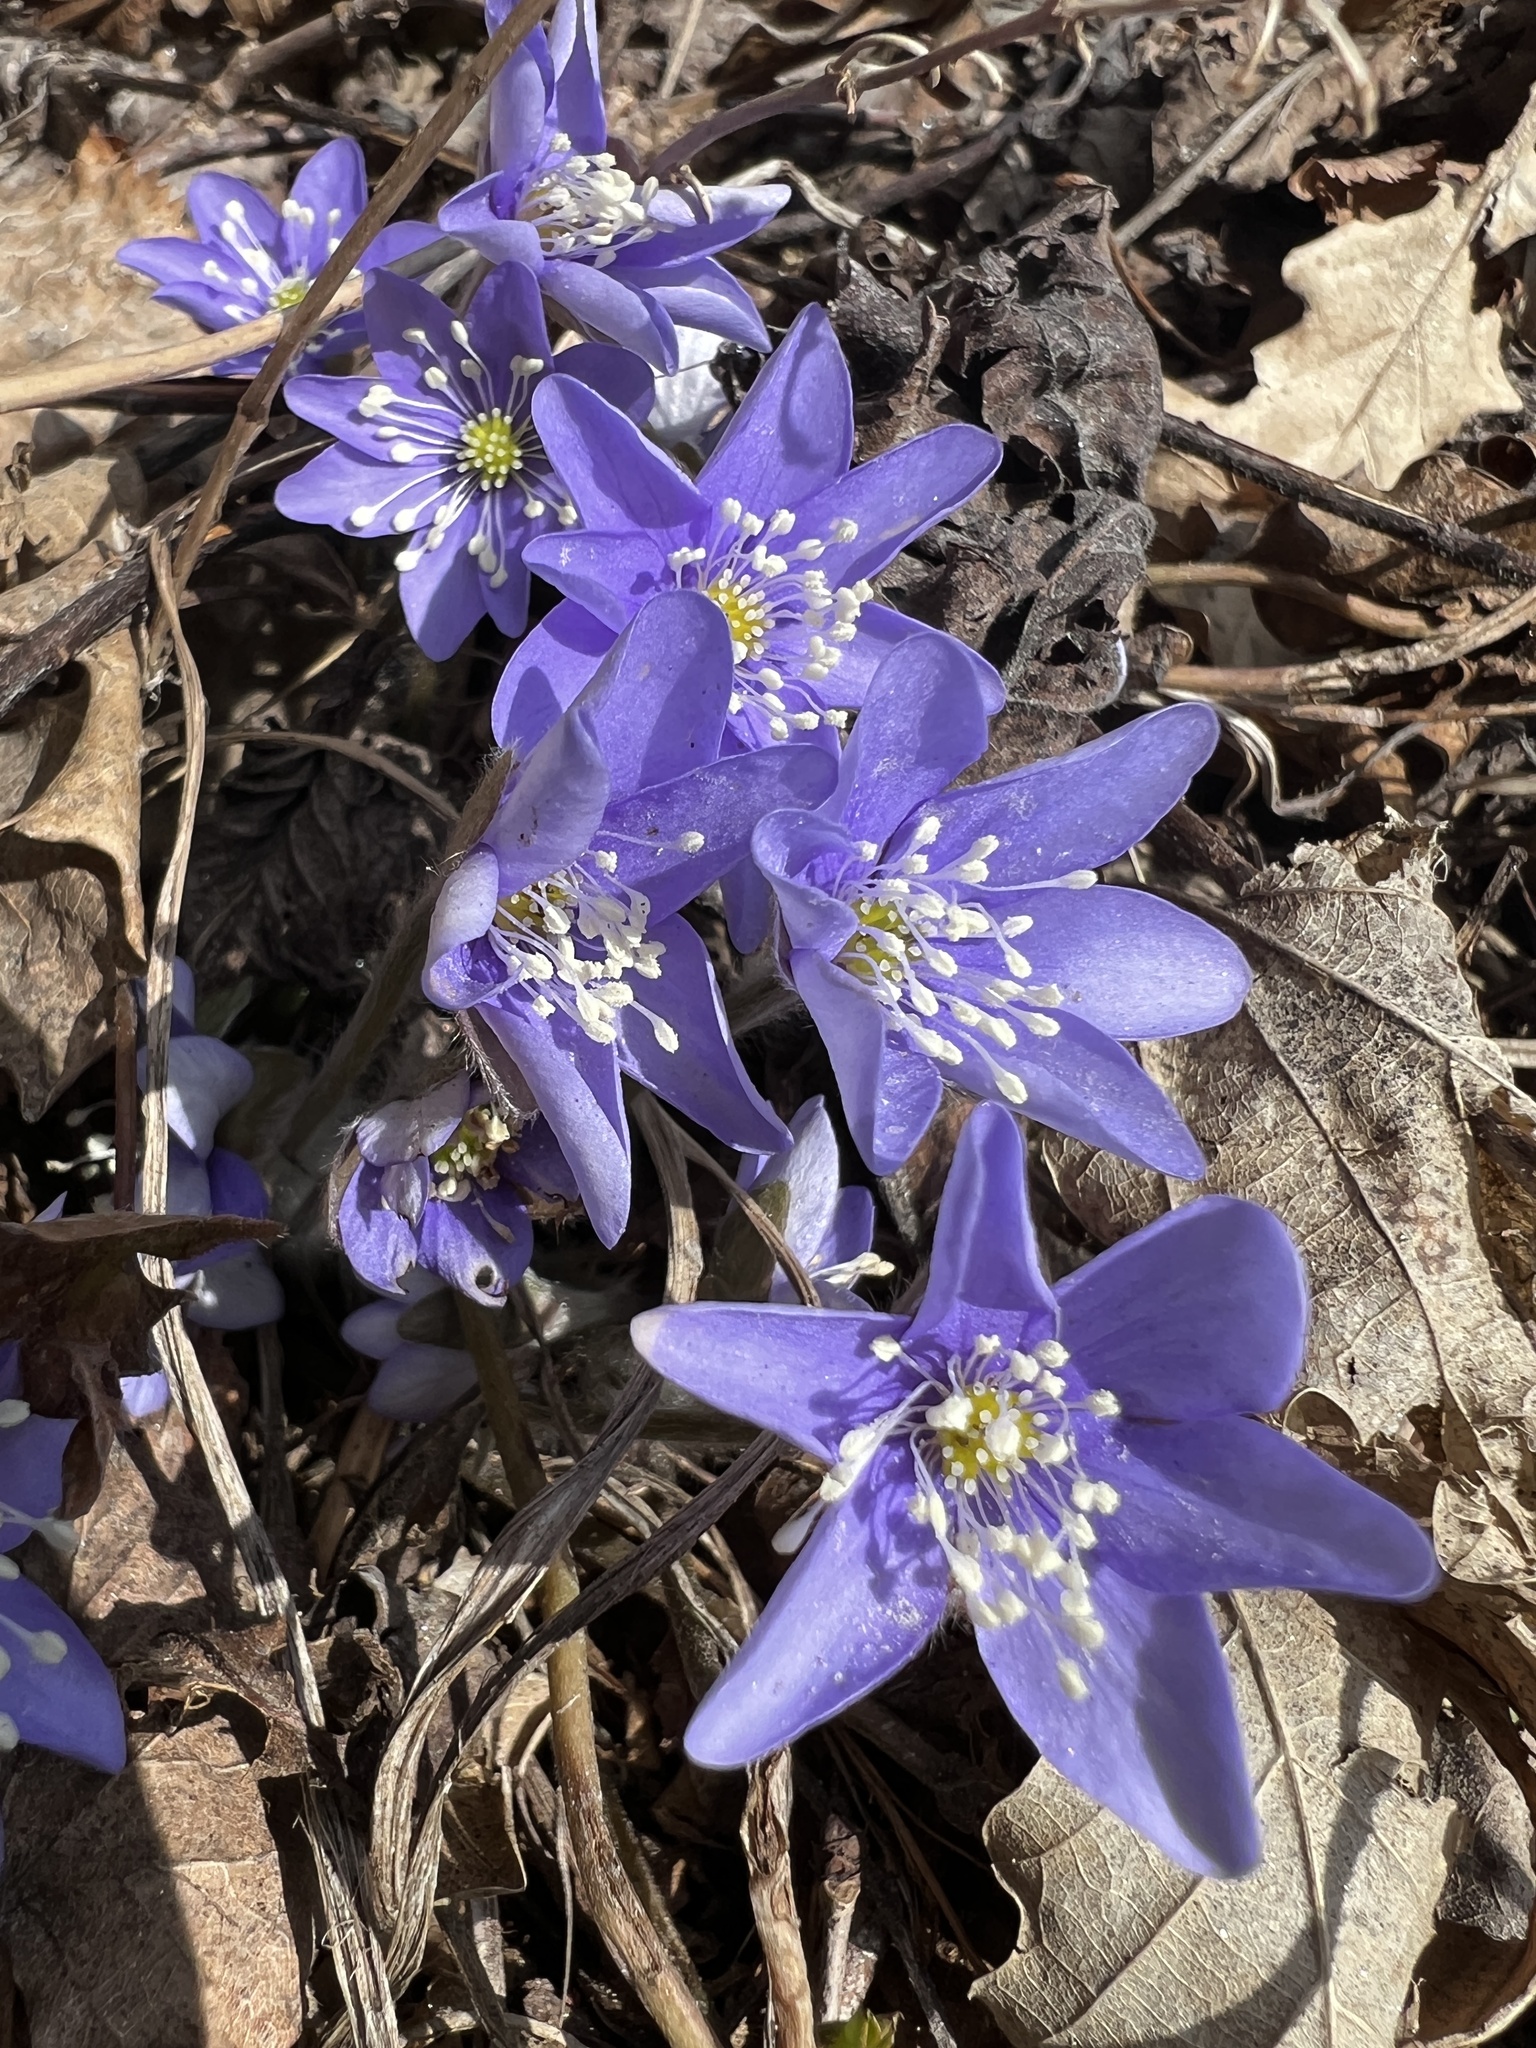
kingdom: Plantae
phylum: Tracheophyta
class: Magnoliopsida
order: Ranunculales
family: Ranunculaceae
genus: Hepatica
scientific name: Hepatica nobilis
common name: Liverleaf
